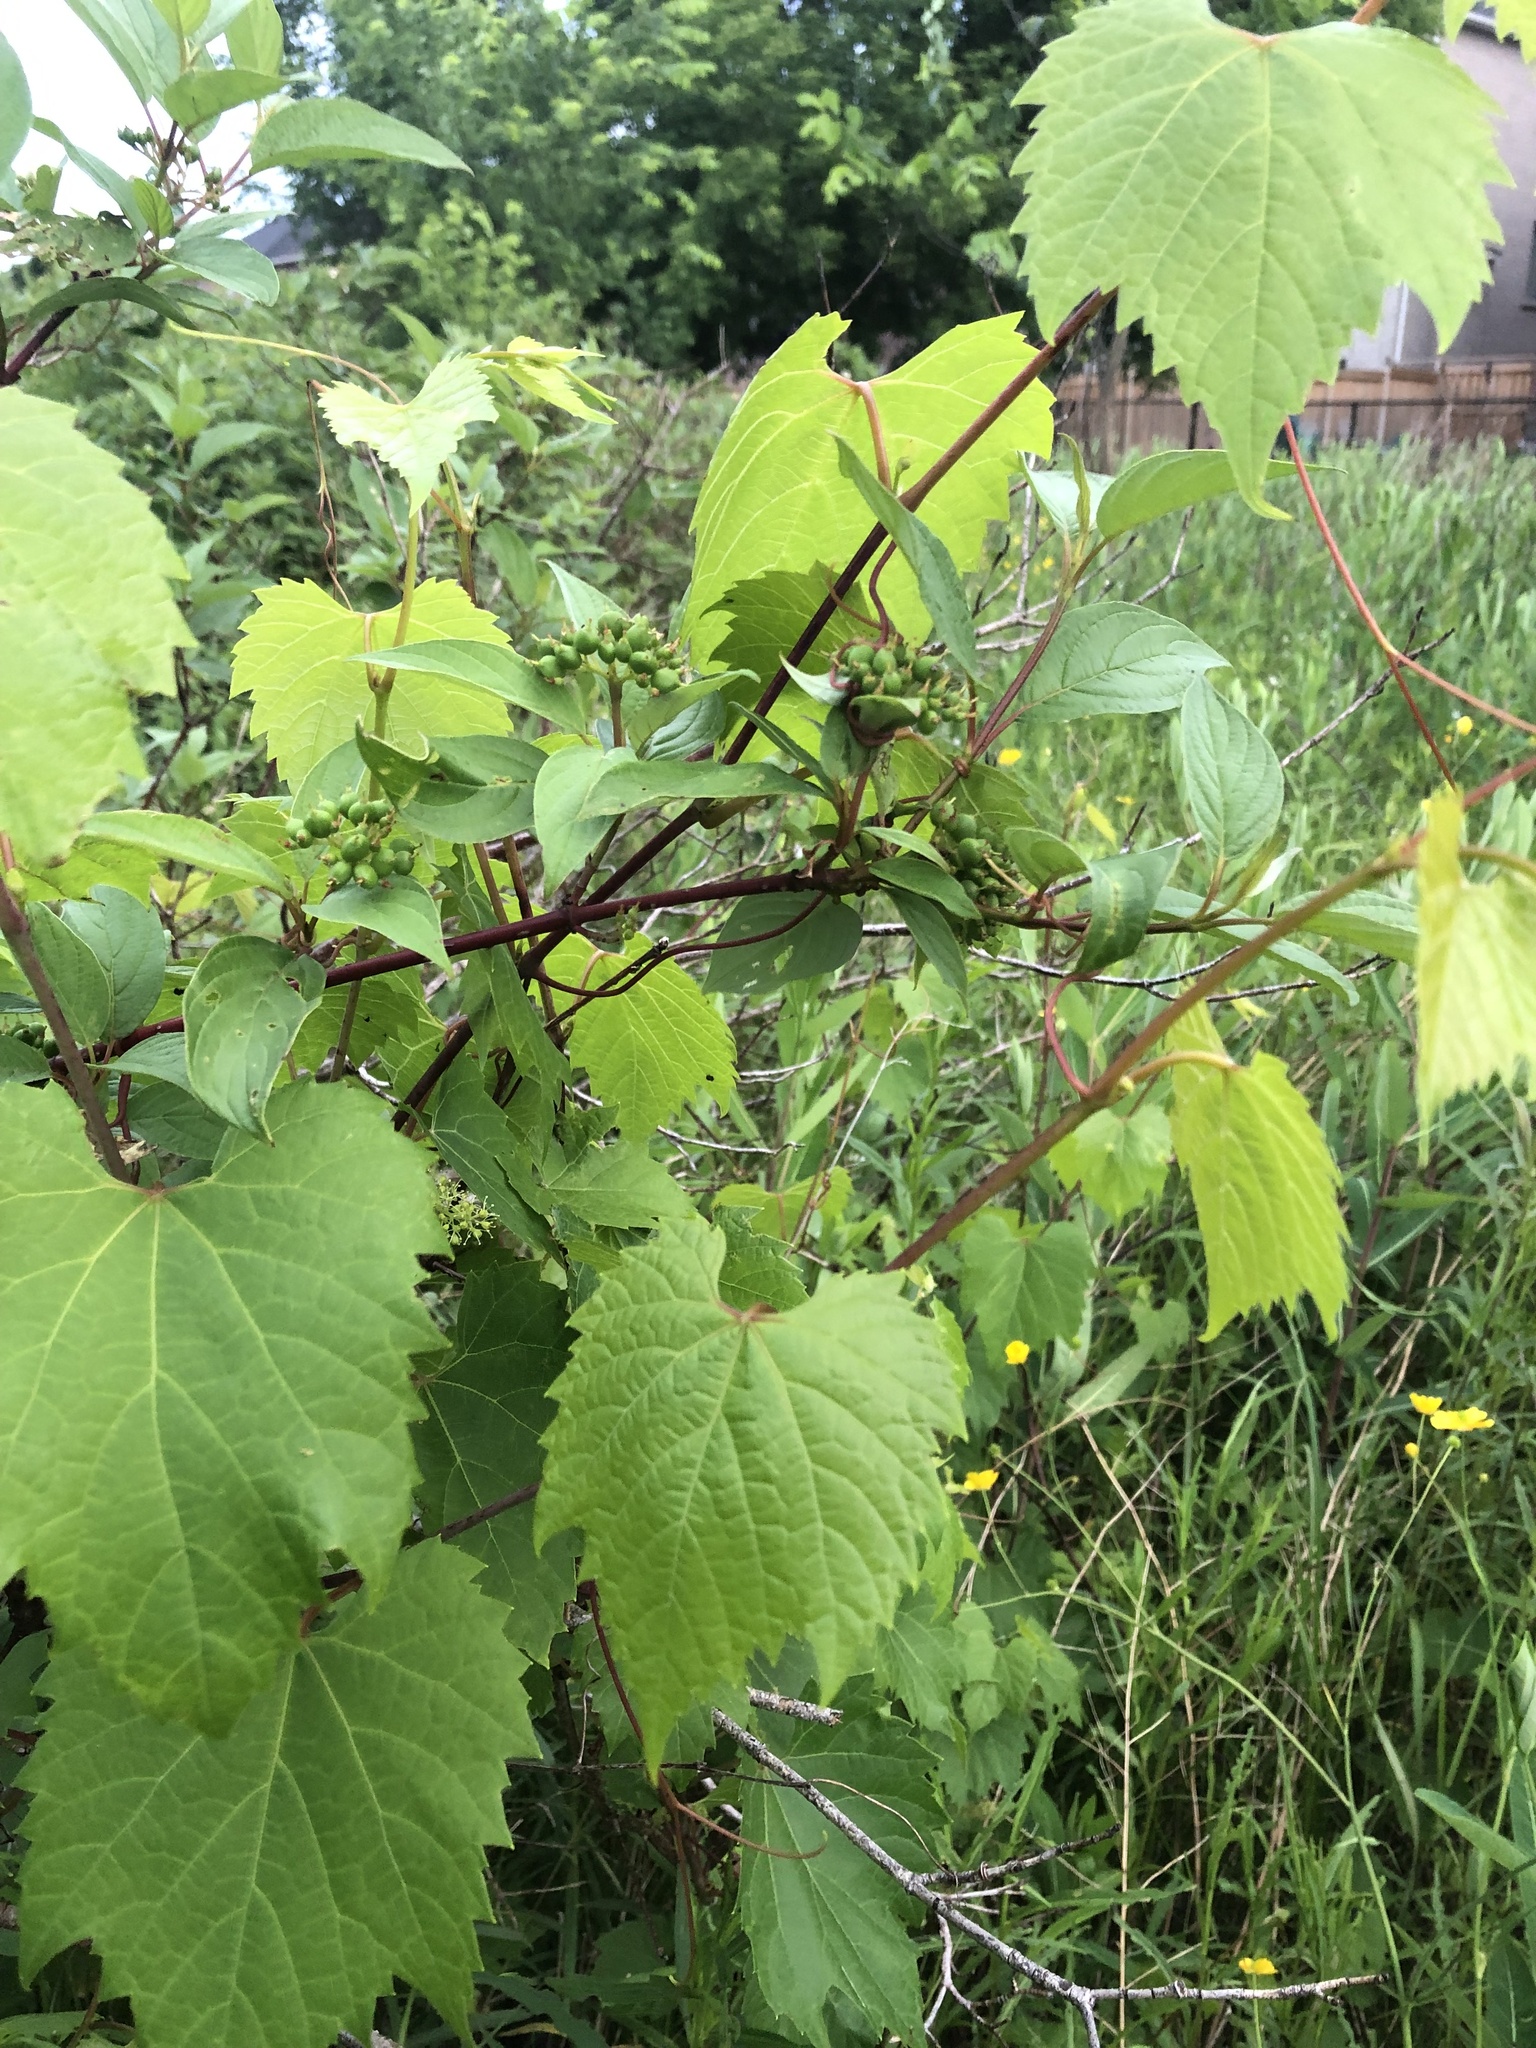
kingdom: Plantae
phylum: Tracheophyta
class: Magnoliopsida
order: Vitales
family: Vitaceae
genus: Vitis
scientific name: Vitis riparia
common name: Frost grape
